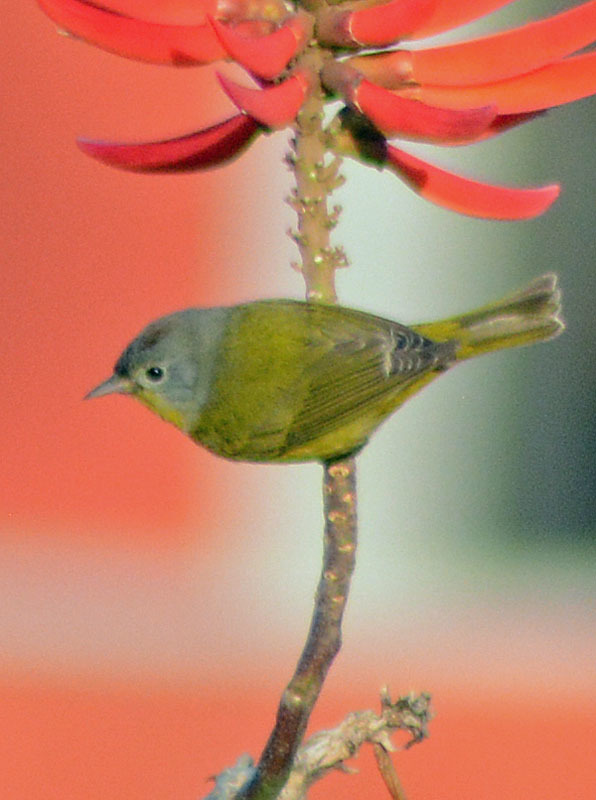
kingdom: Animalia
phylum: Chordata
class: Aves
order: Passeriformes
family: Parulidae
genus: Leiothlypis
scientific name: Leiothlypis ruficapilla
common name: Nashville warbler
